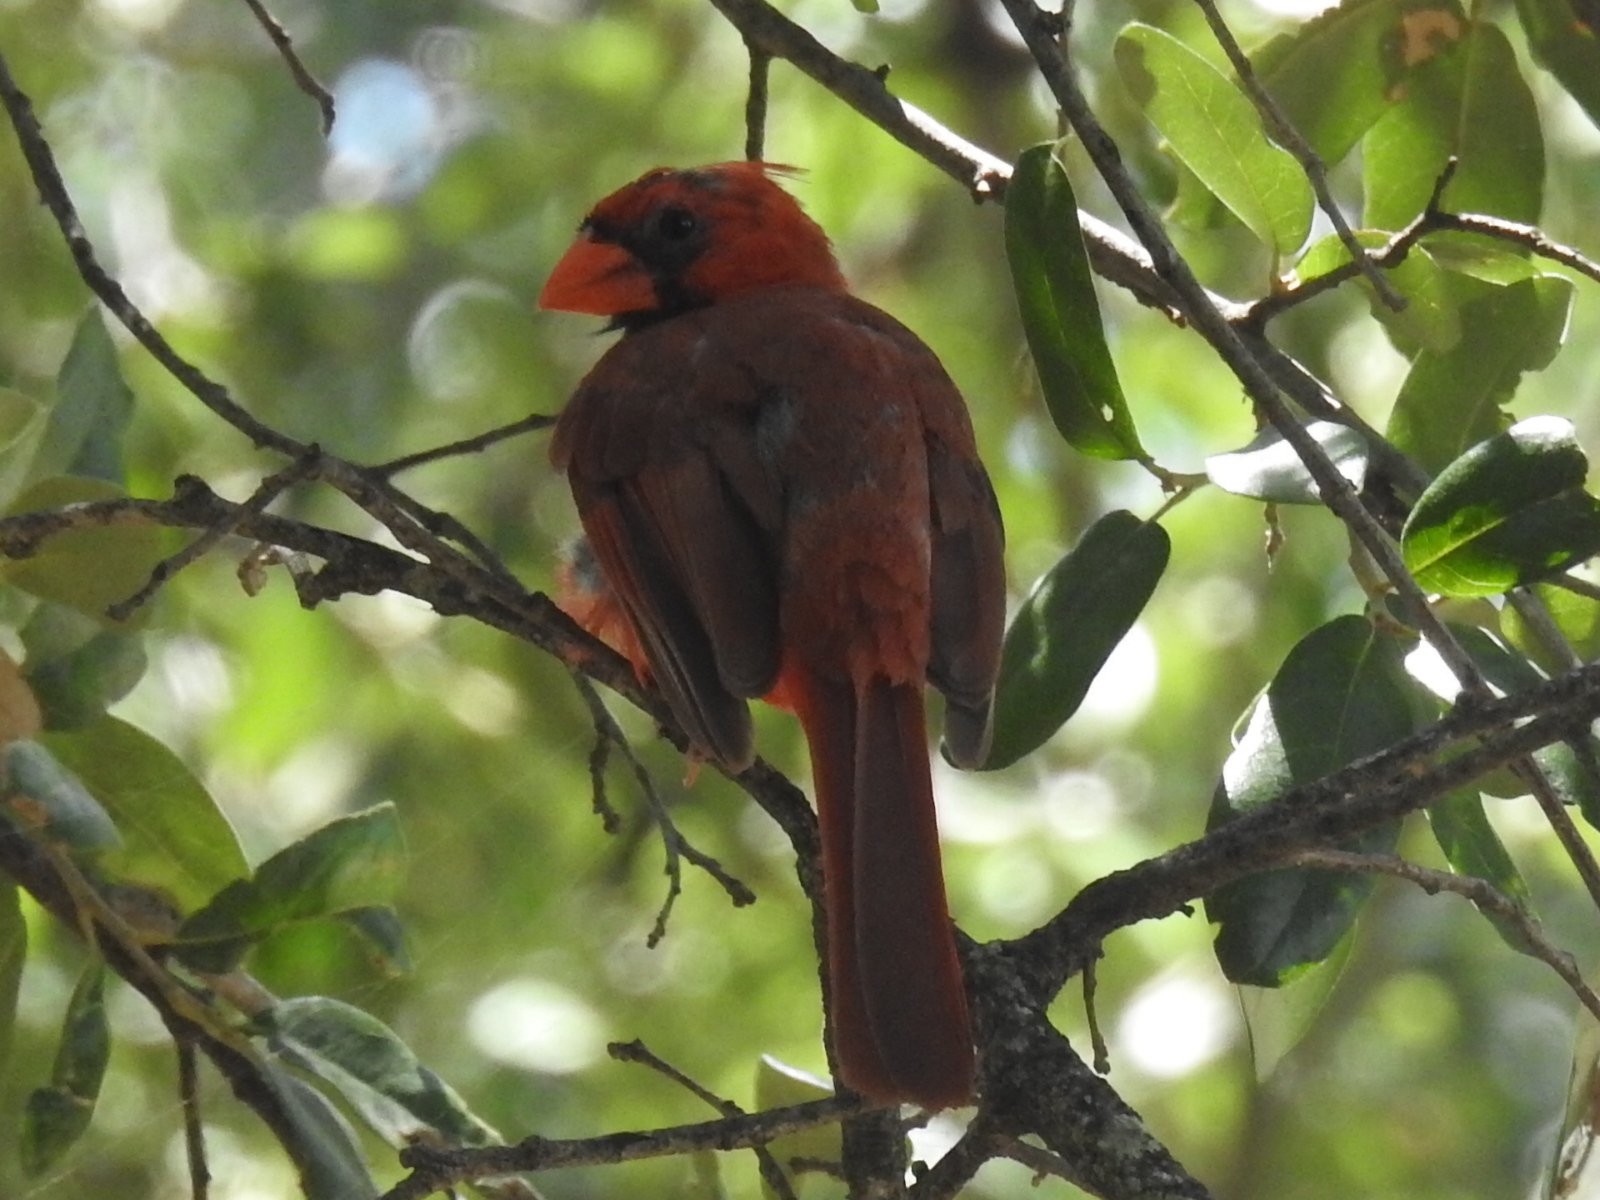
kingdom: Animalia
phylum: Chordata
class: Aves
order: Passeriformes
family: Cardinalidae
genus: Cardinalis
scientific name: Cardinalis cardinalis
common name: Northern cardinal
